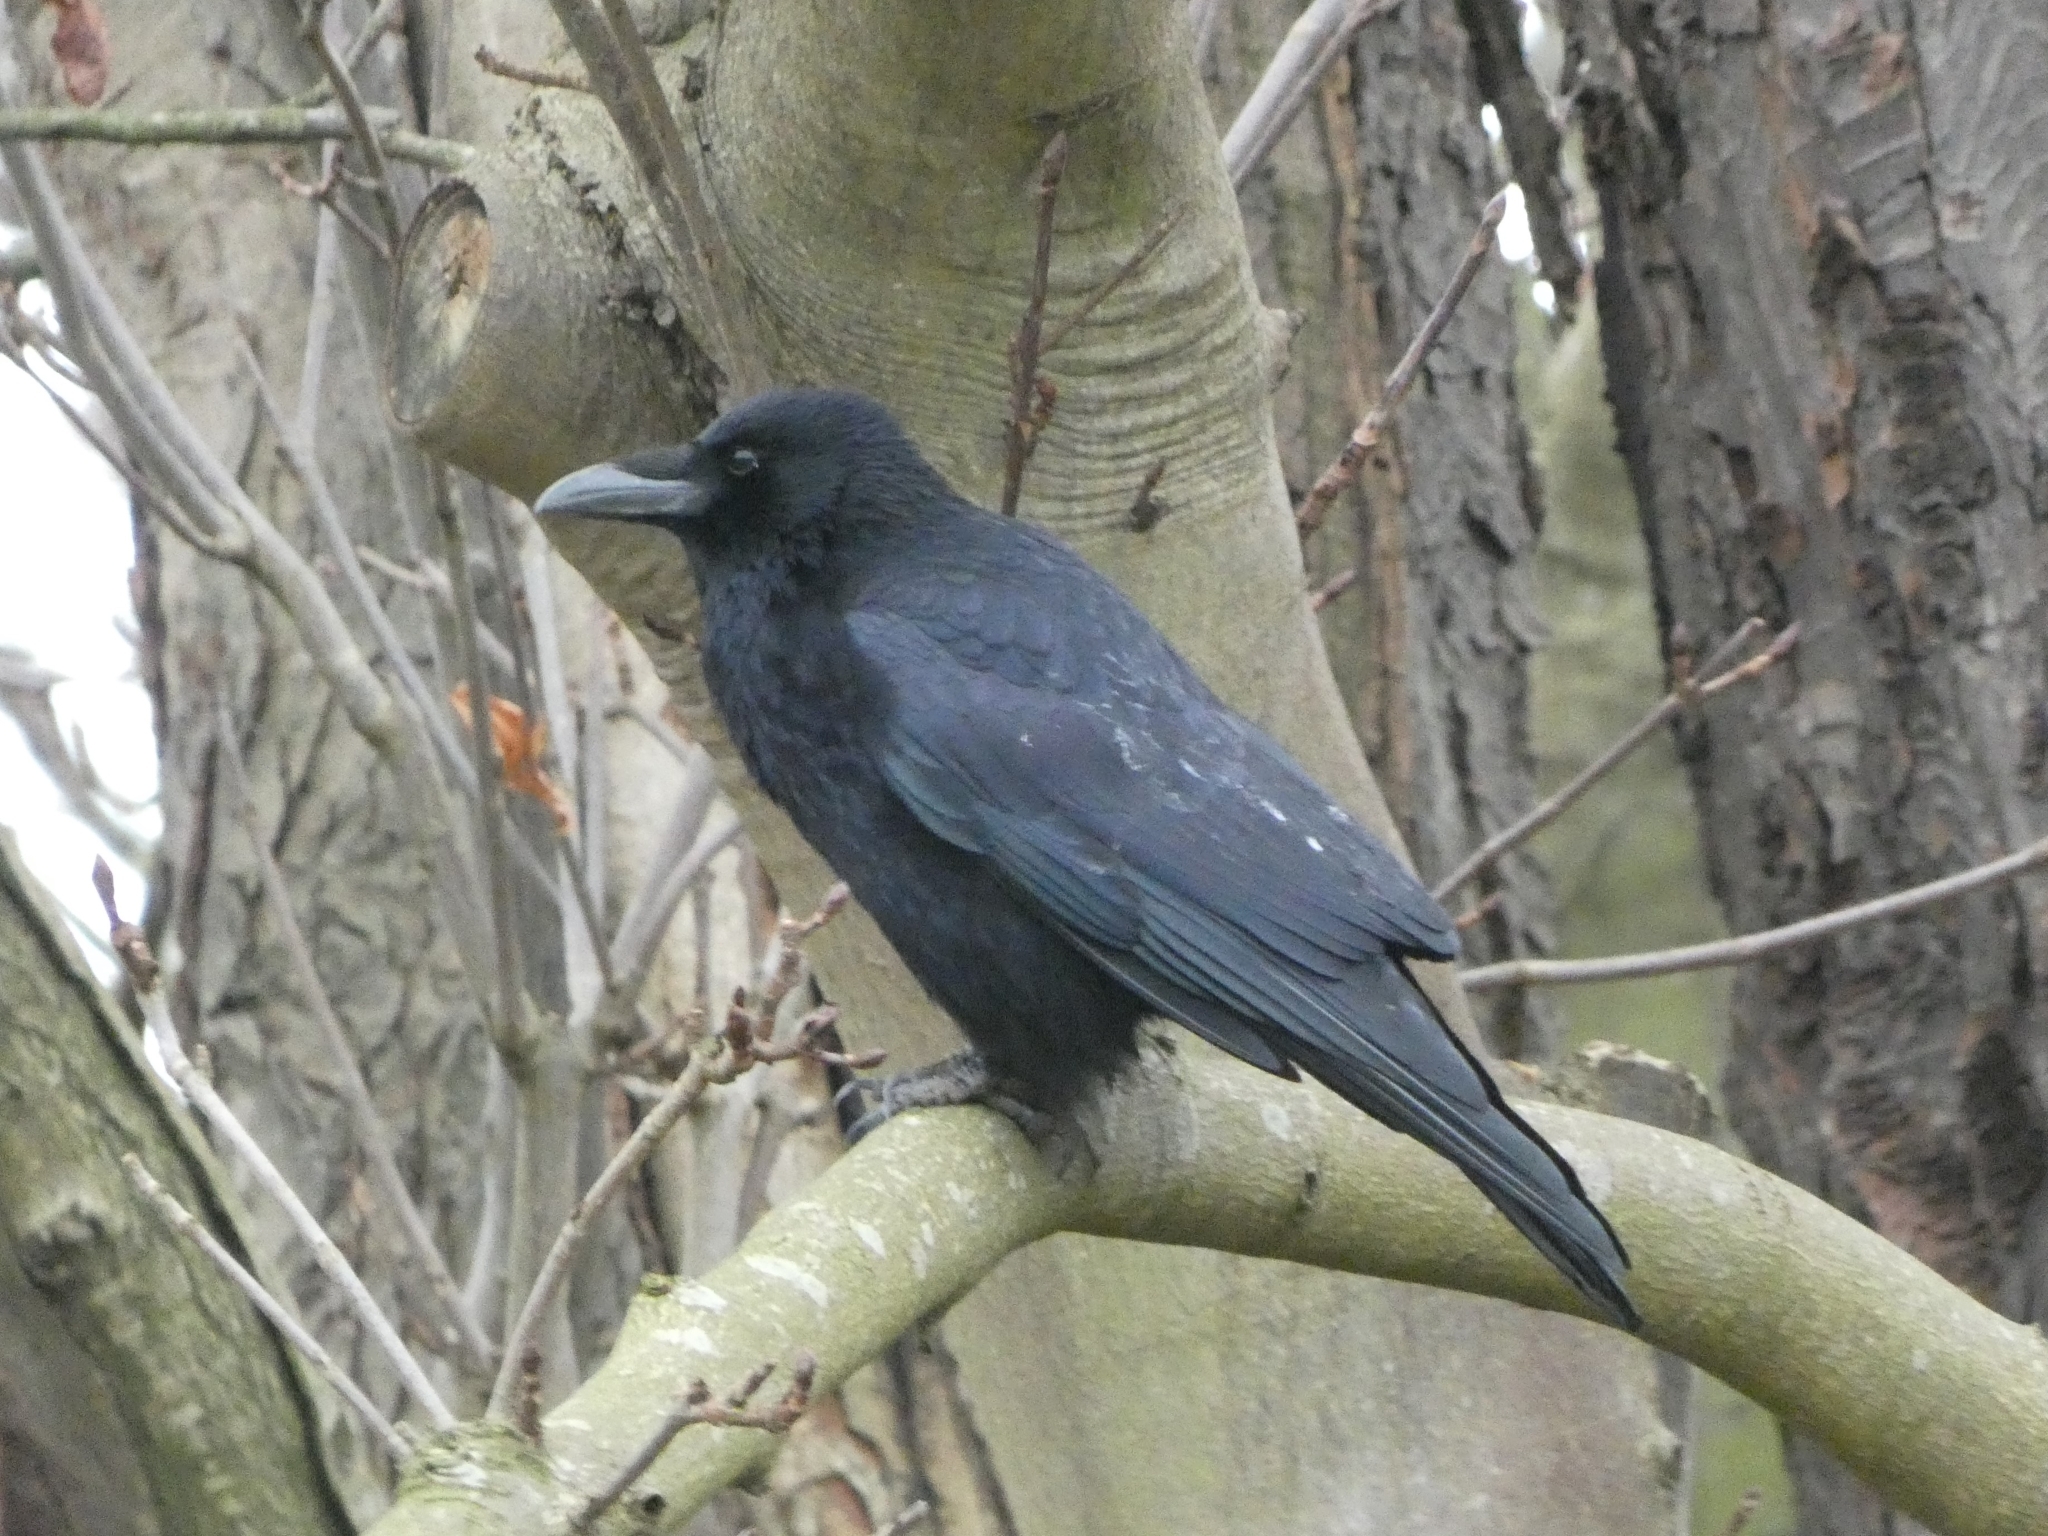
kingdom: Animalia
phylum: Chordata
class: Aves
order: Passeriformes
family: Corvidae
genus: Corvus
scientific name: Corvus corone
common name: Carrion crow
